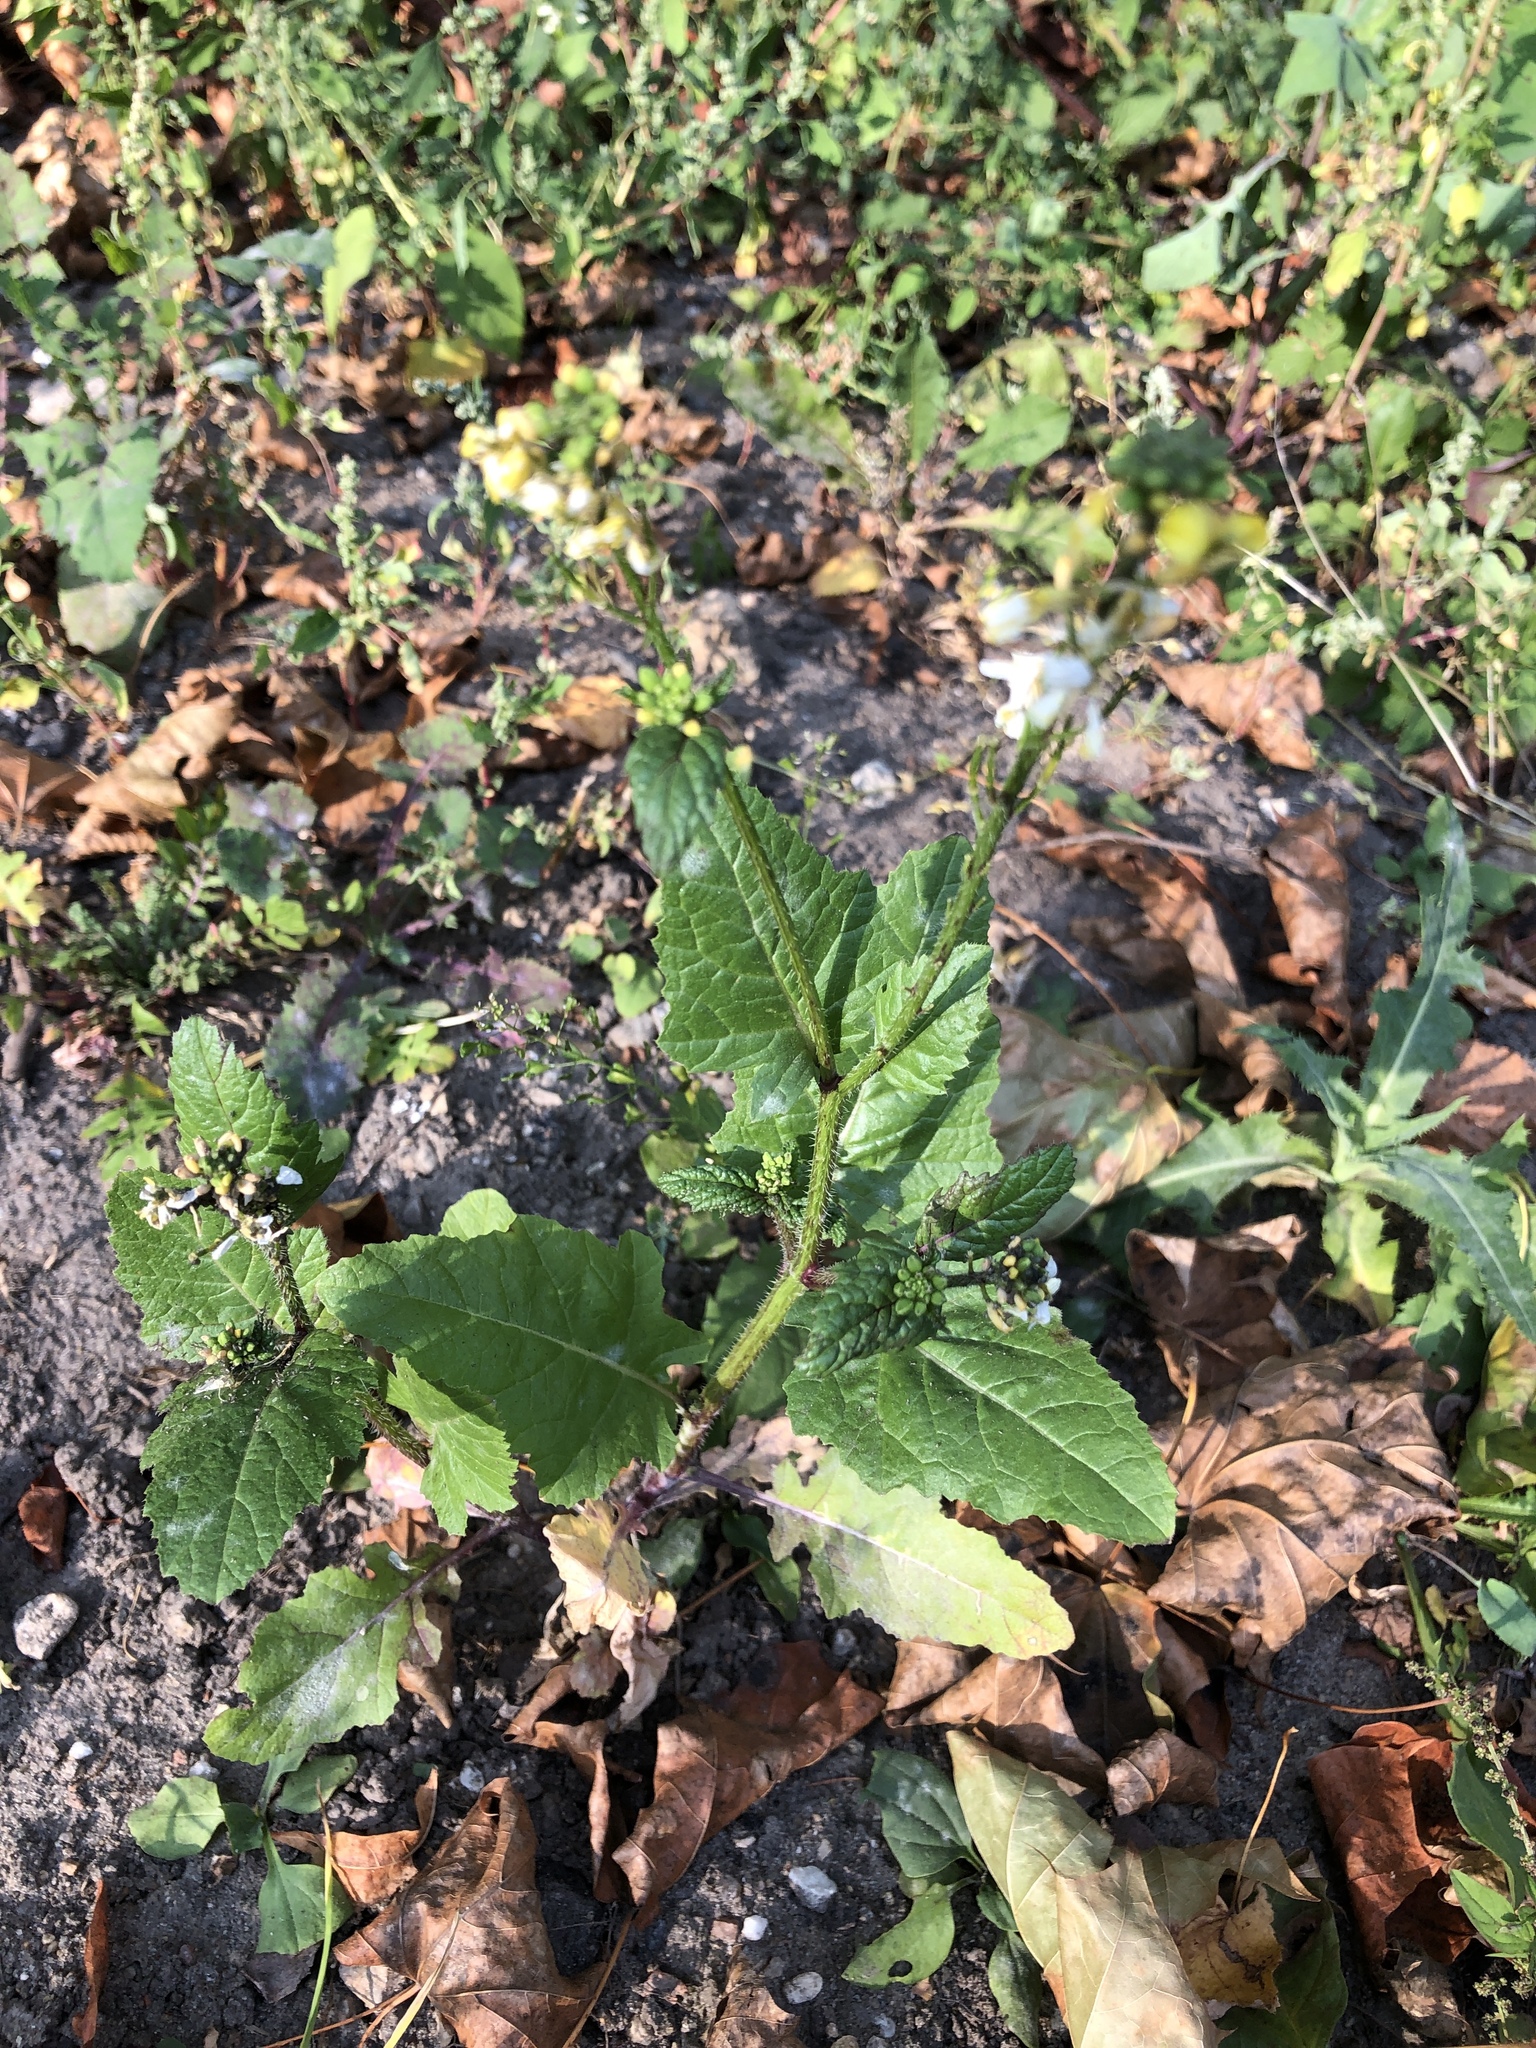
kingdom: Plantae
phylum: Tracheophyta
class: Magnoliopsida
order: Brassicales
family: Brassicaceae
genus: Sinapis
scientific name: Sinapis arvensis
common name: Charlock
